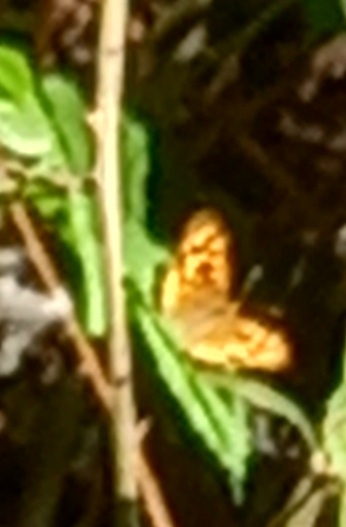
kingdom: Animalia
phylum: Arthropoda
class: Insecta
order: Lepidoptera
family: Nymphalidae
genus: Pararge
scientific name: Pararge aegeria
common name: Speckled wood
